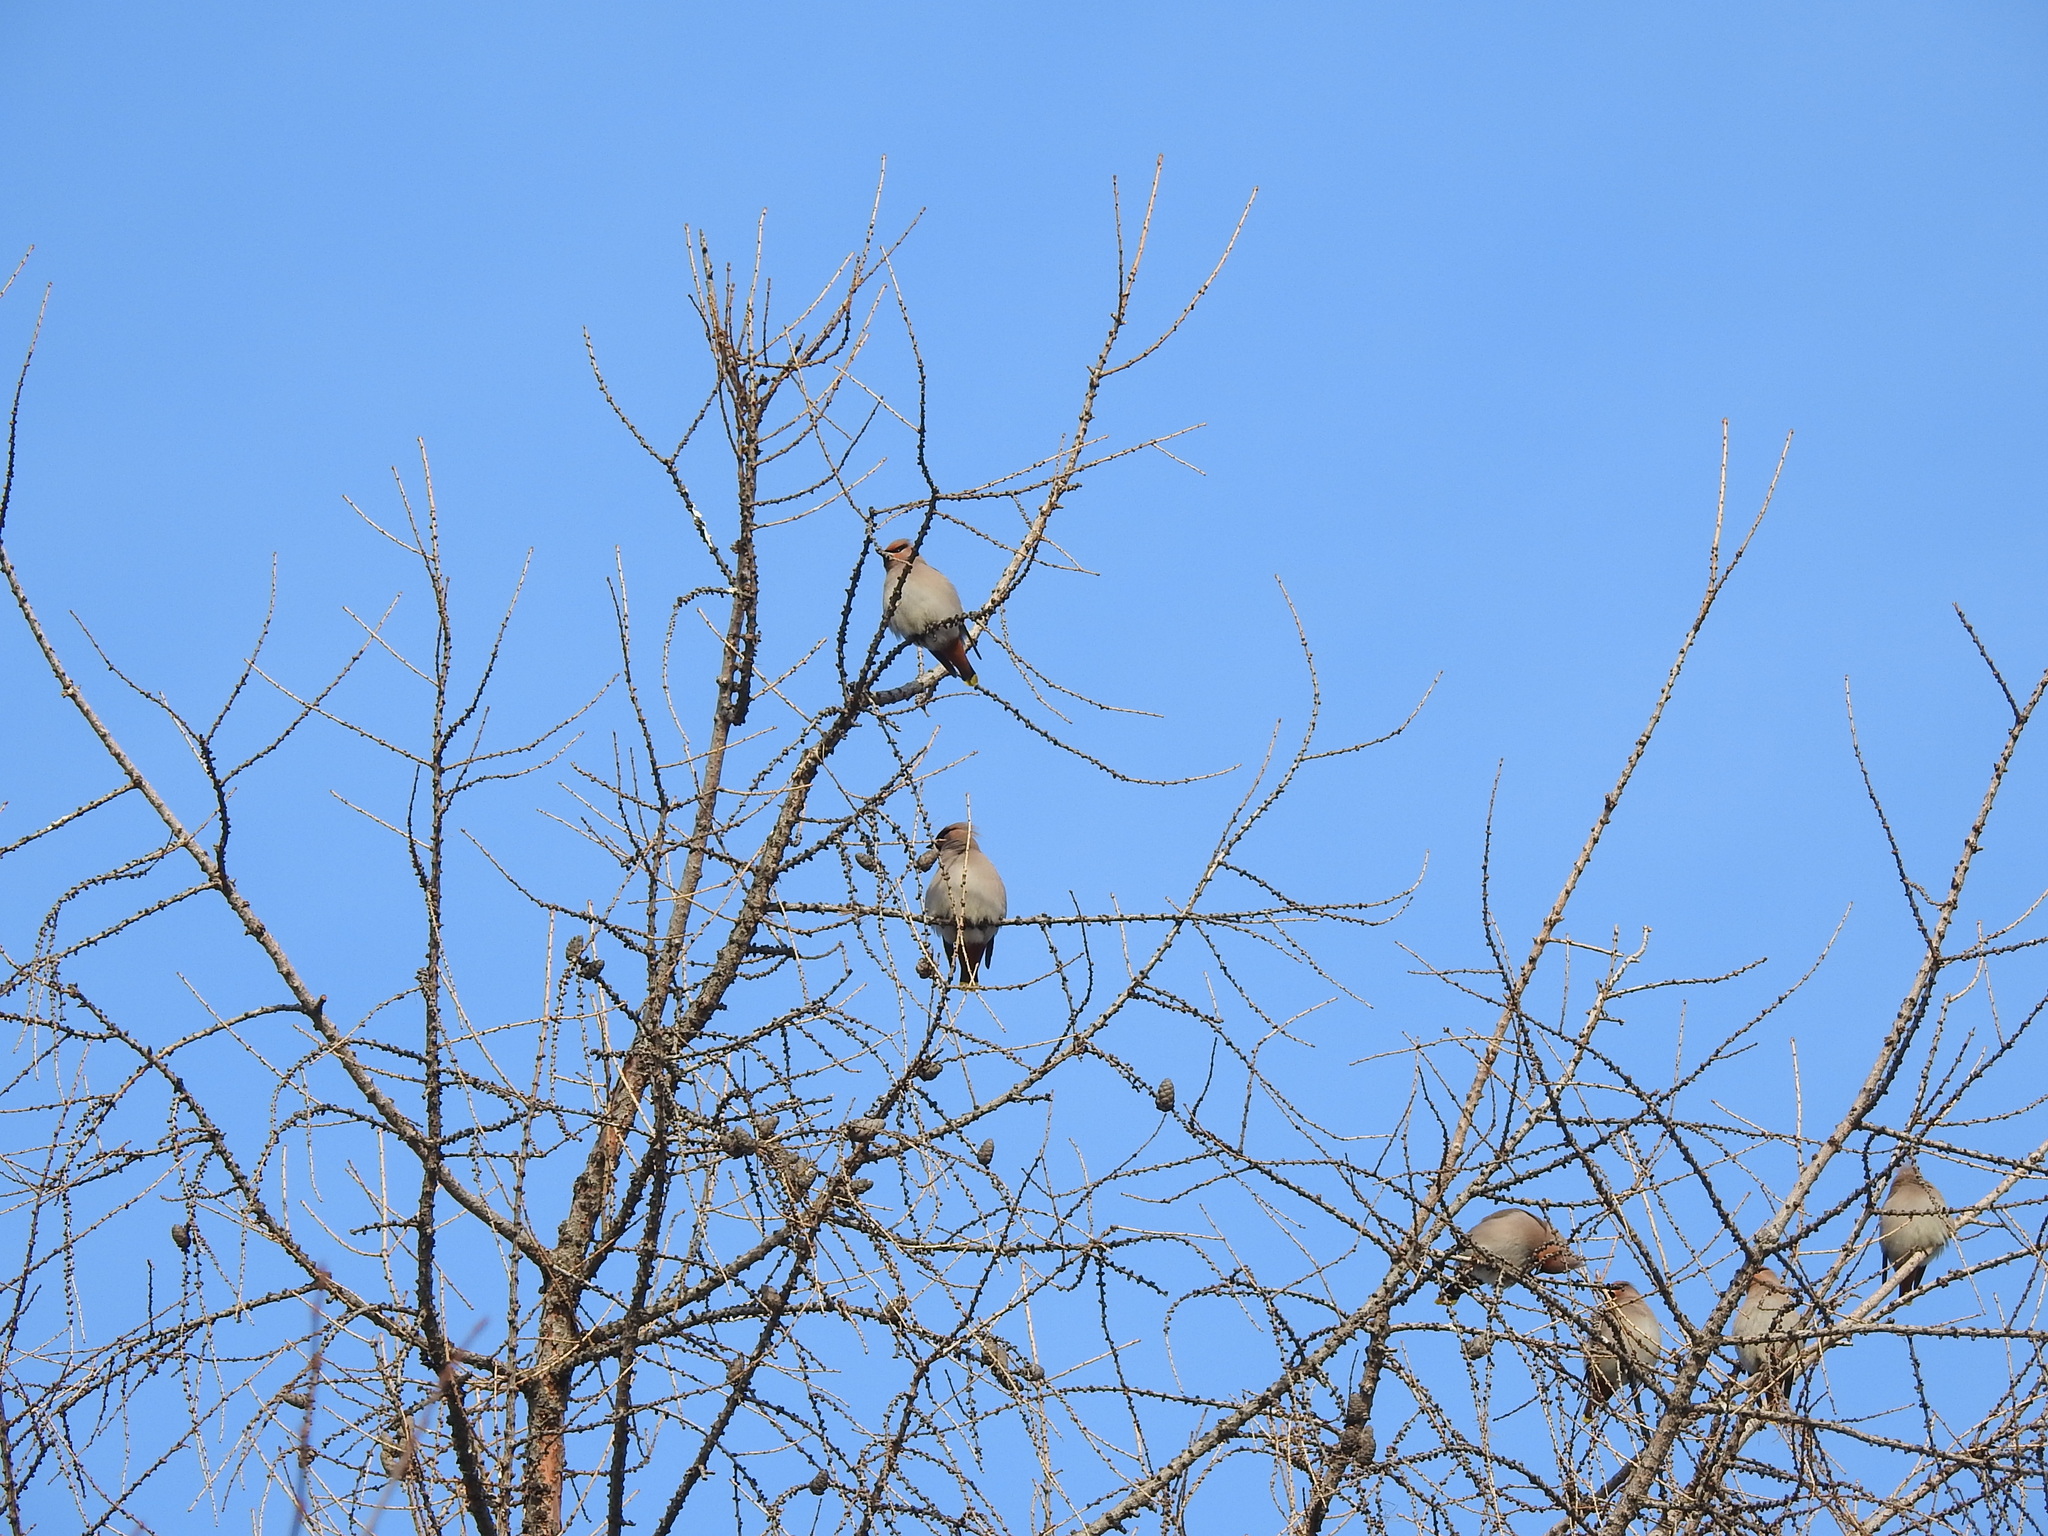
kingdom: Animalia
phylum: Chordata
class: Aves
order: Passeriformes
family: Bombycillidae
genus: Bombycilla
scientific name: Bombycilla garrulus
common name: Bohemian waxwing
